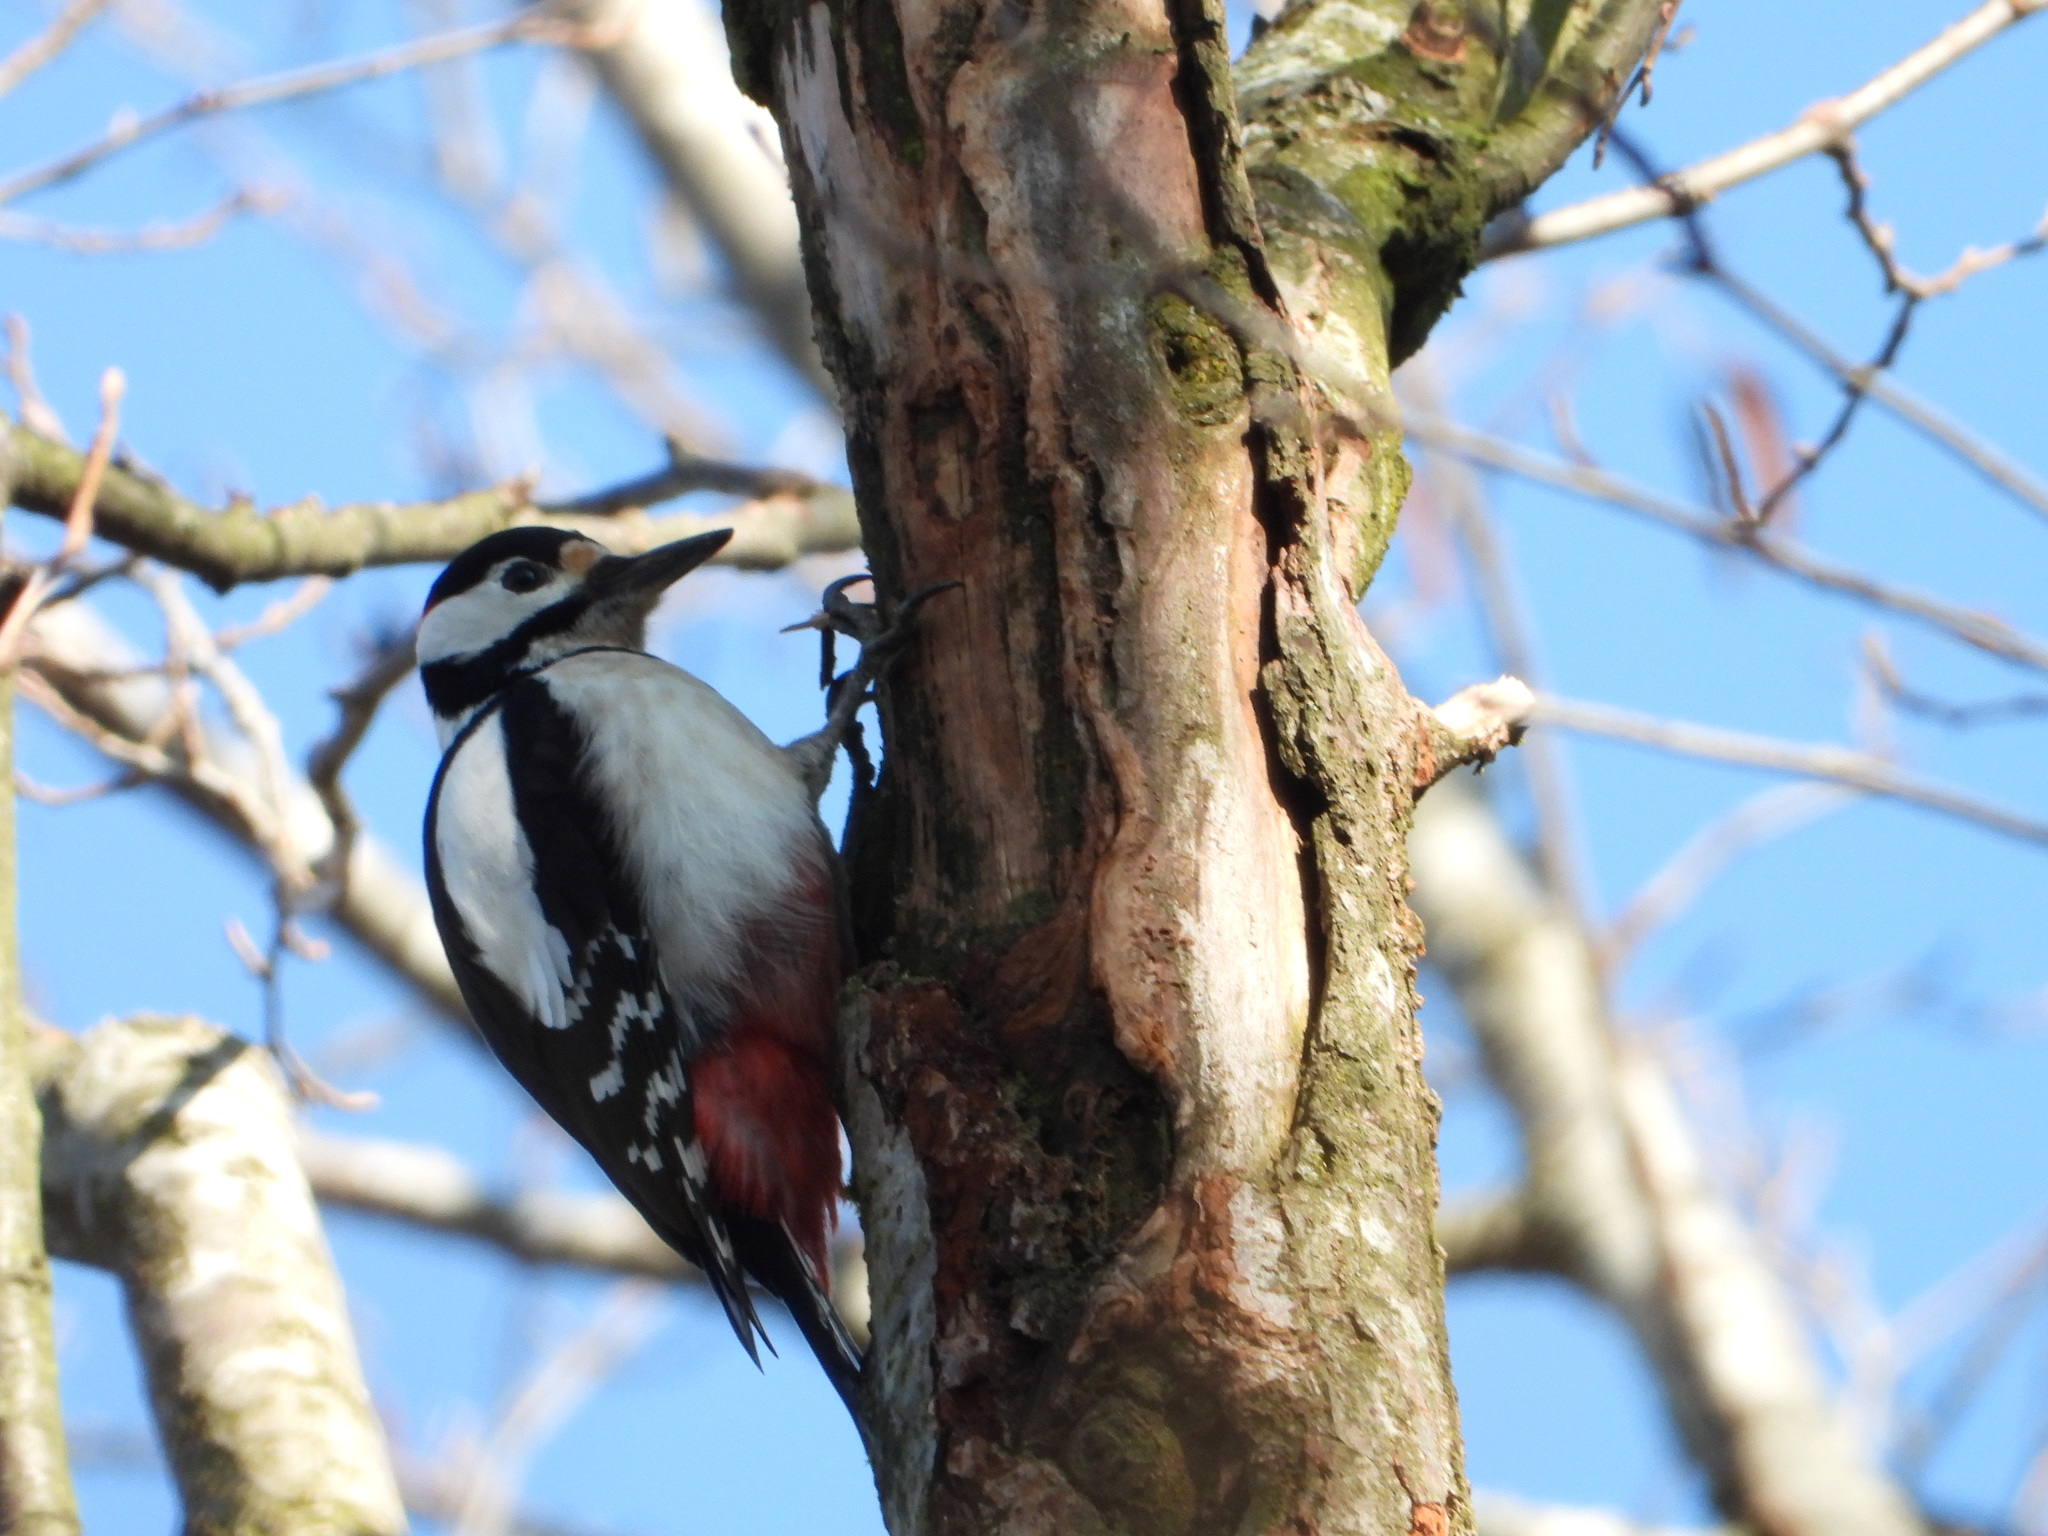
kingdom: Animalia
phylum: Chordata
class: Aves
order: Piciformes
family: Picidae
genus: Dendrocopos
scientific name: Dendrocopos major
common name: Great spotted woodpecker
